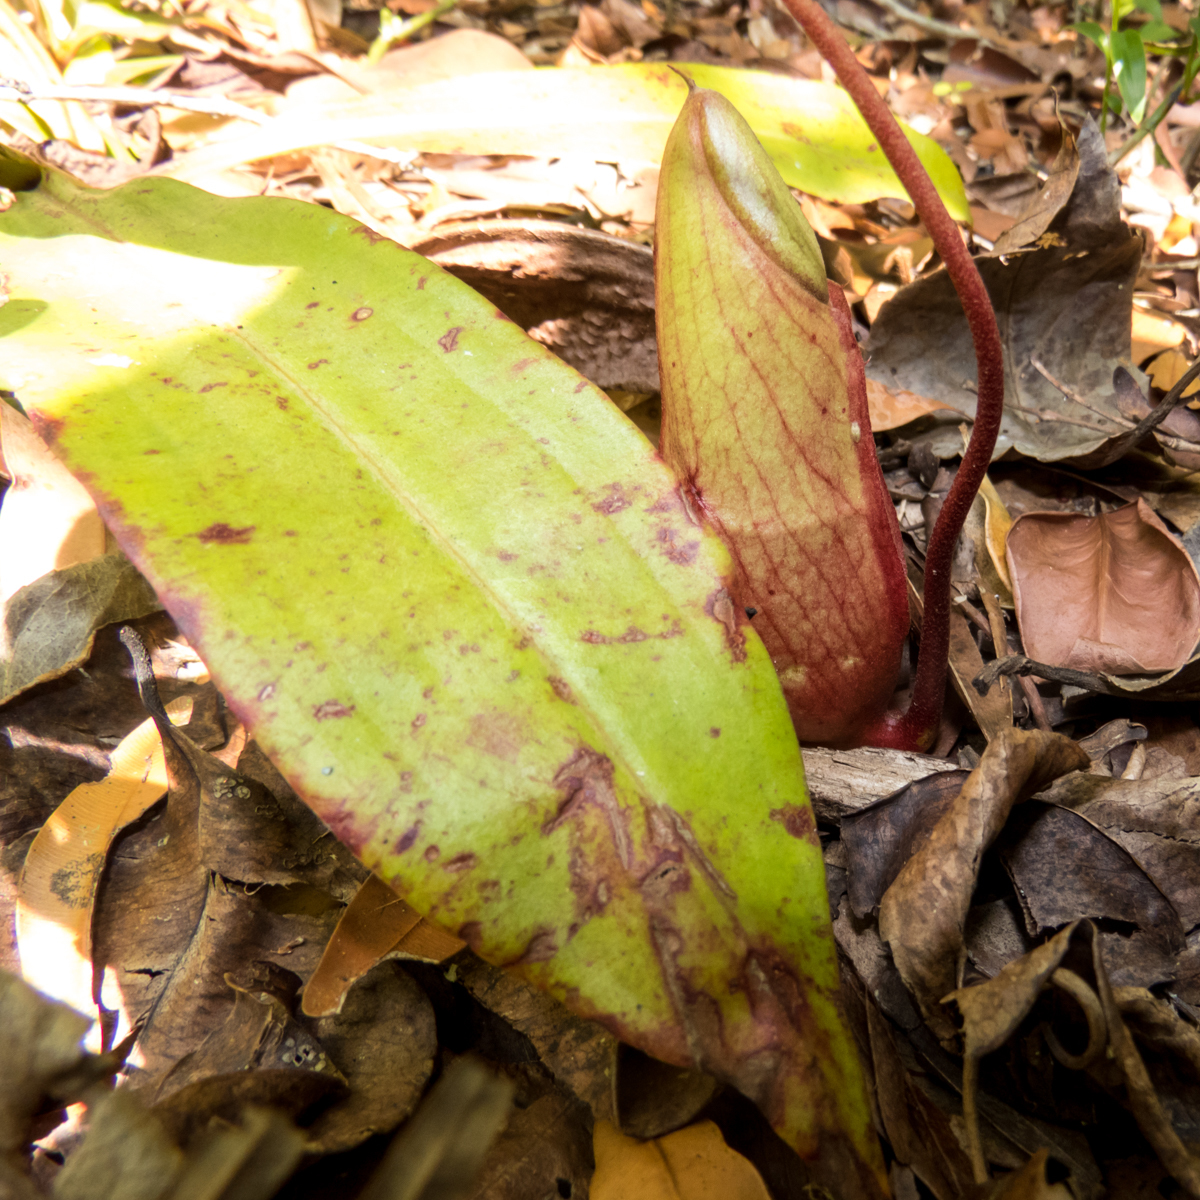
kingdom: Plantae
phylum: Tracheophyta
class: Magnoliopsida
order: Caryophyllales
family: Nepenthaceae
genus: Nepenthes
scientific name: Nepenthes mirabilis
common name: Tropical pitcherplant
